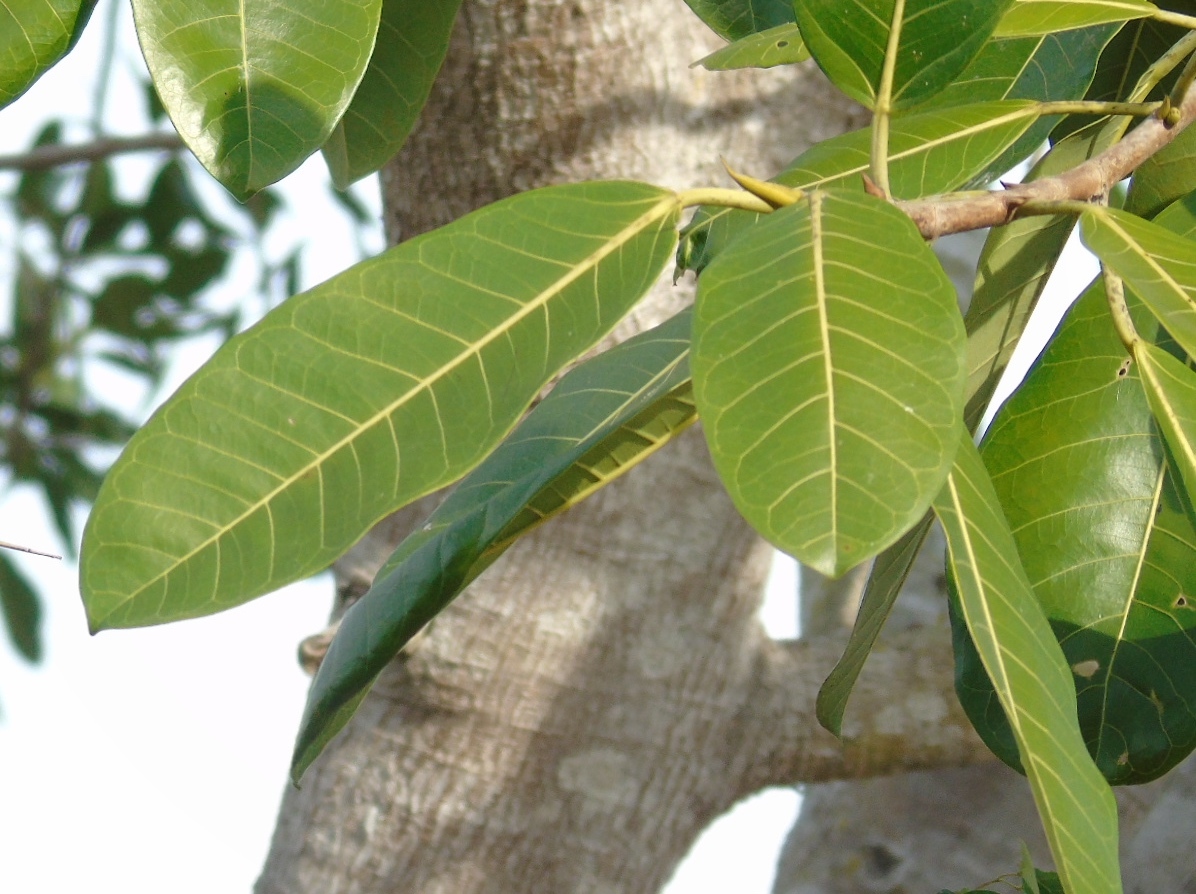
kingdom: Plantae
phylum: Tracheophyta
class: Magnoliopsida
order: Rosales
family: Moraceae
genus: Ficus
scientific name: Ficus crocata
